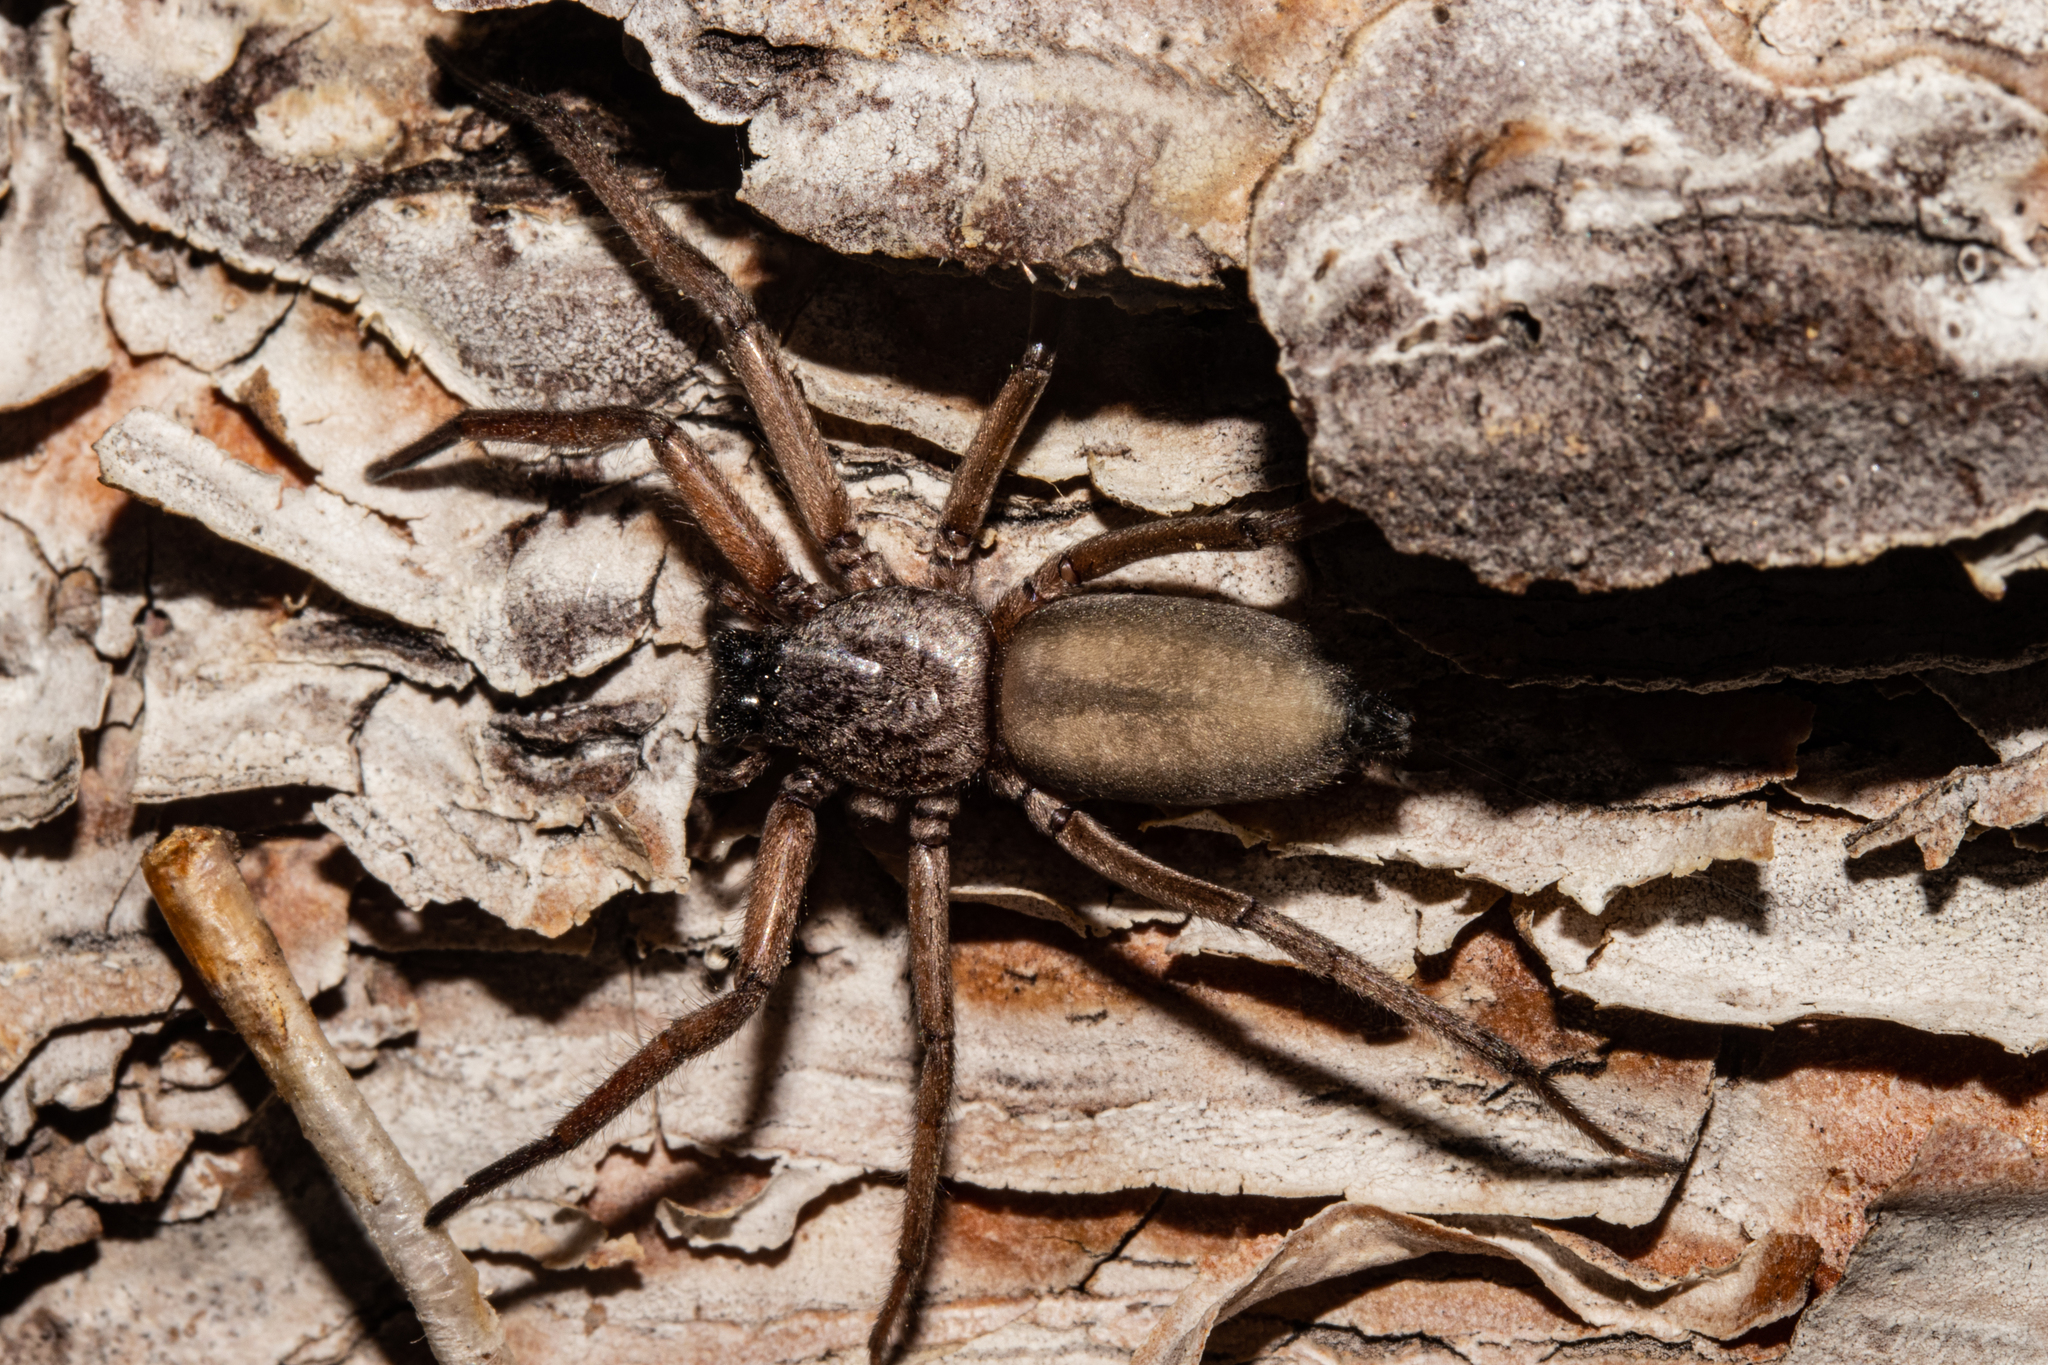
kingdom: Animalia
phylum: Arthropoda
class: Arachnida
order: Araneae
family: Trochanteriidae
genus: Hemicloea
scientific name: Hemicloea rogenhoferi
